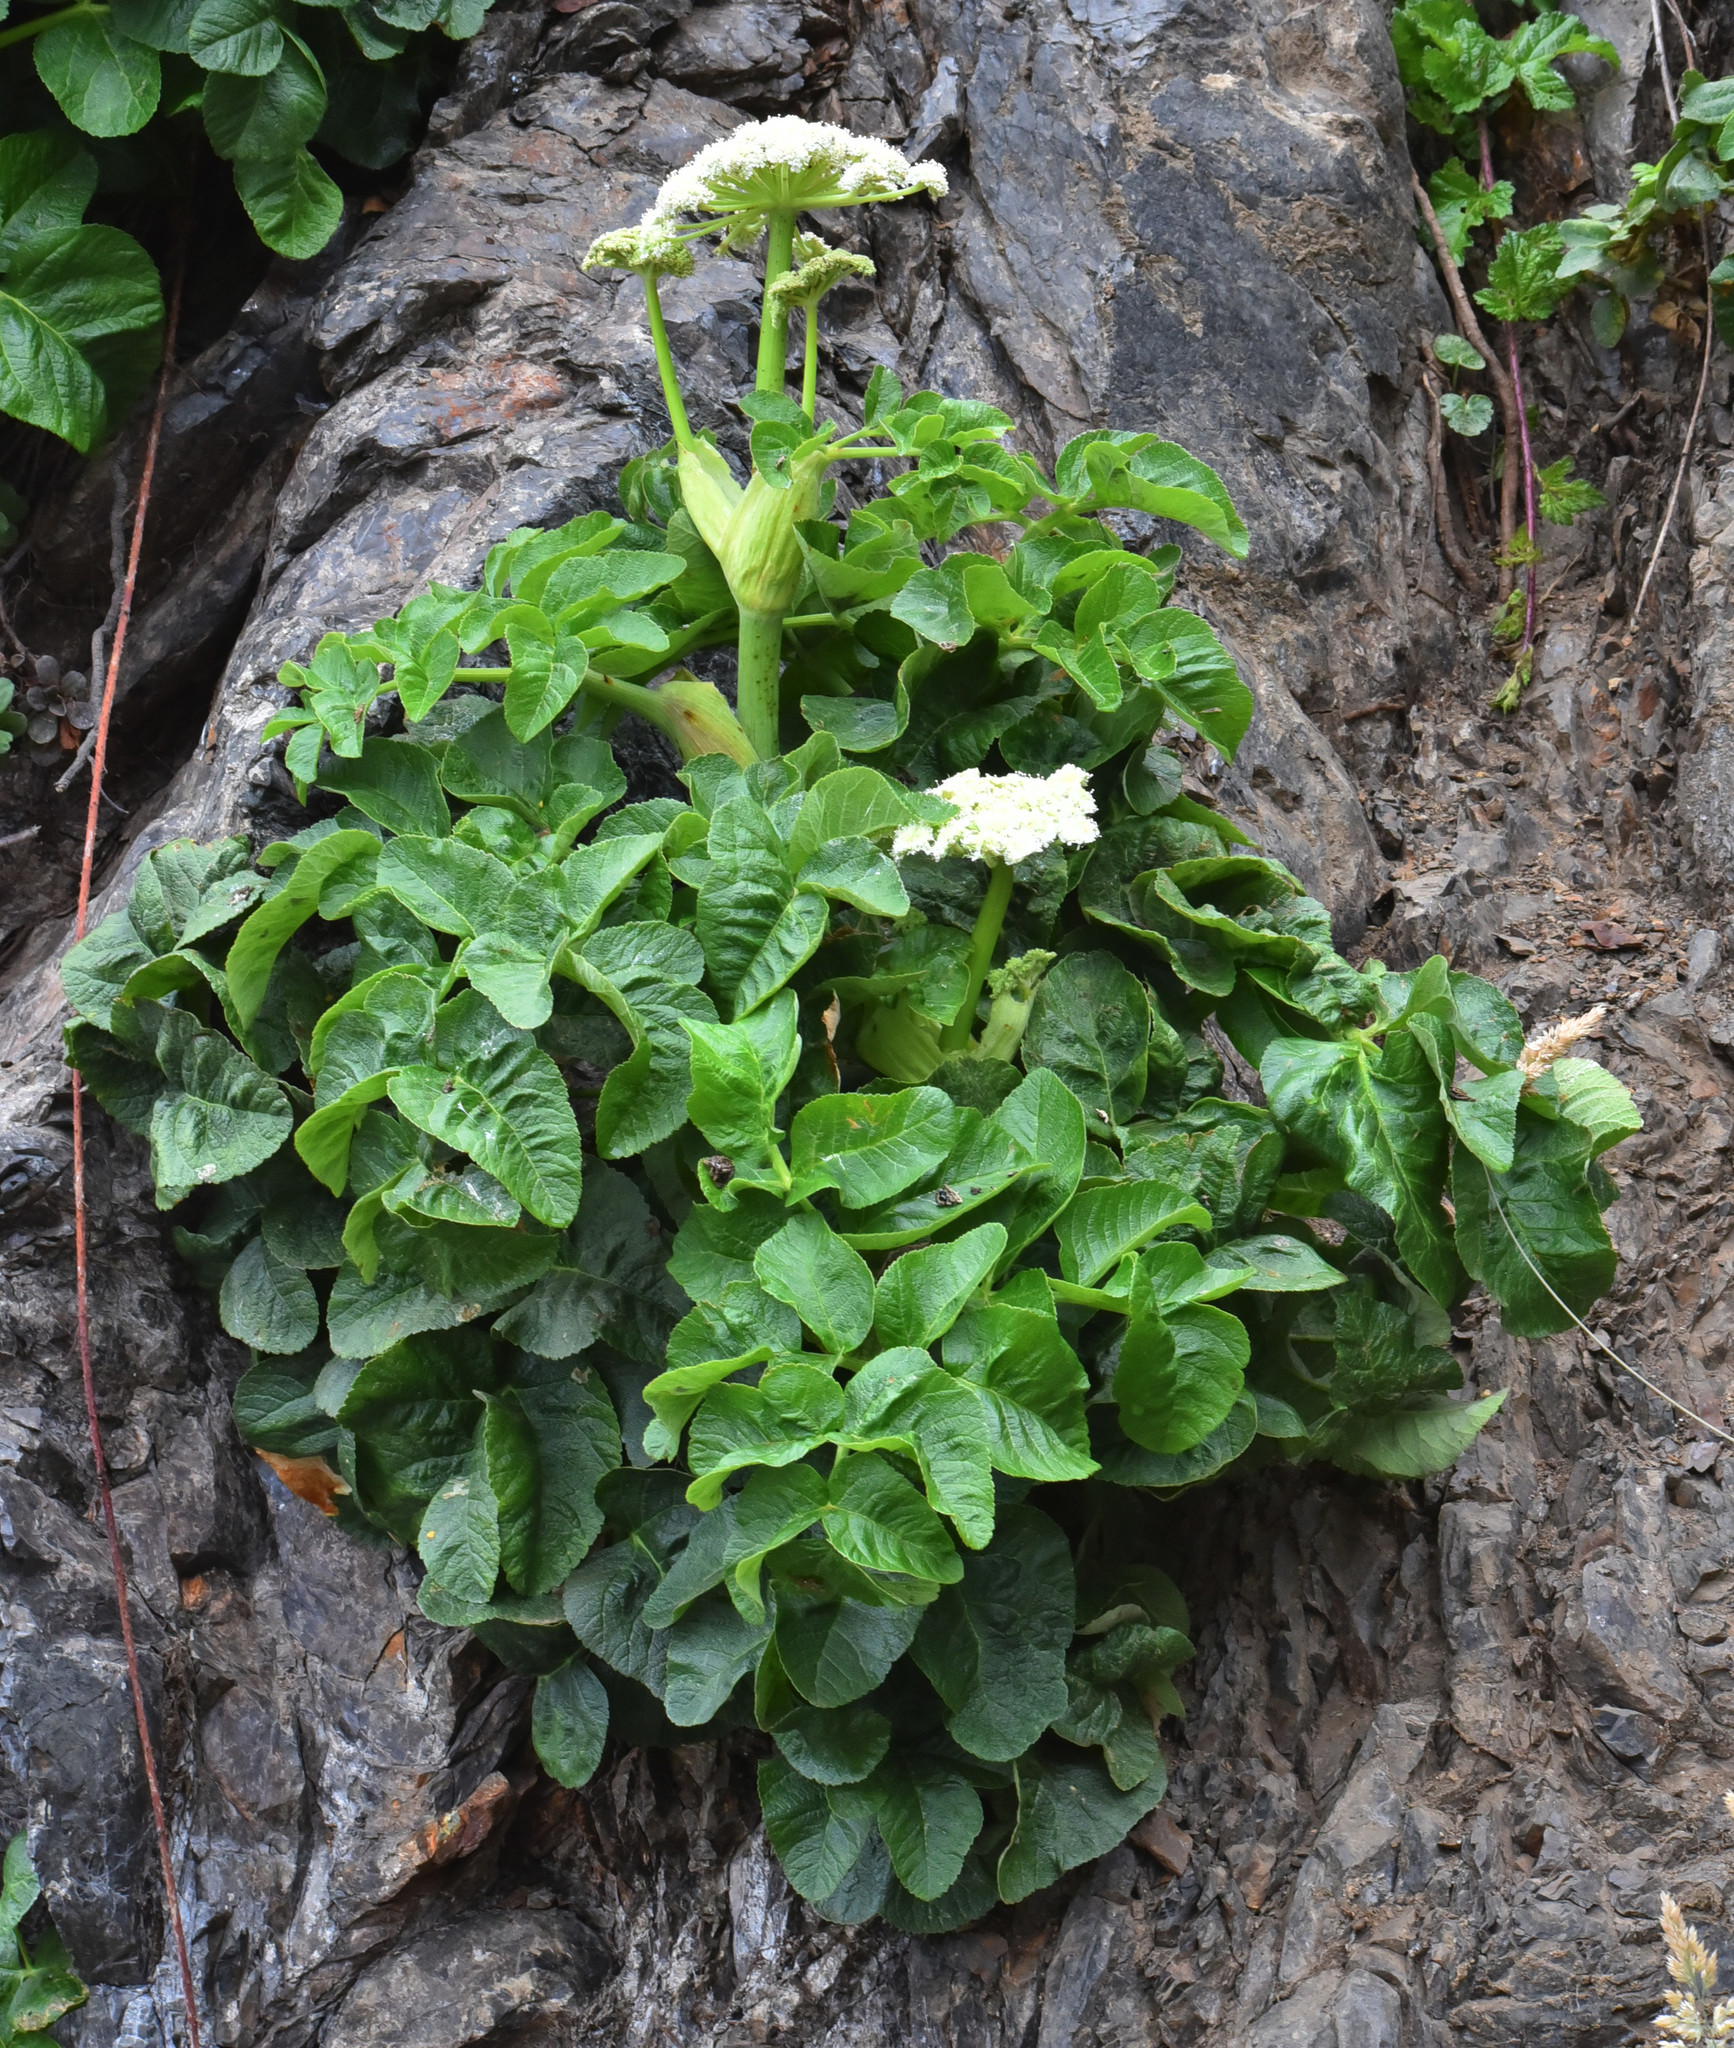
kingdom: Plantae
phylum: Tracheophyta
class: Magnoliopsida
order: Apiales
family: Apiaceae
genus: Angelica
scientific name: Angelica hendersonii
